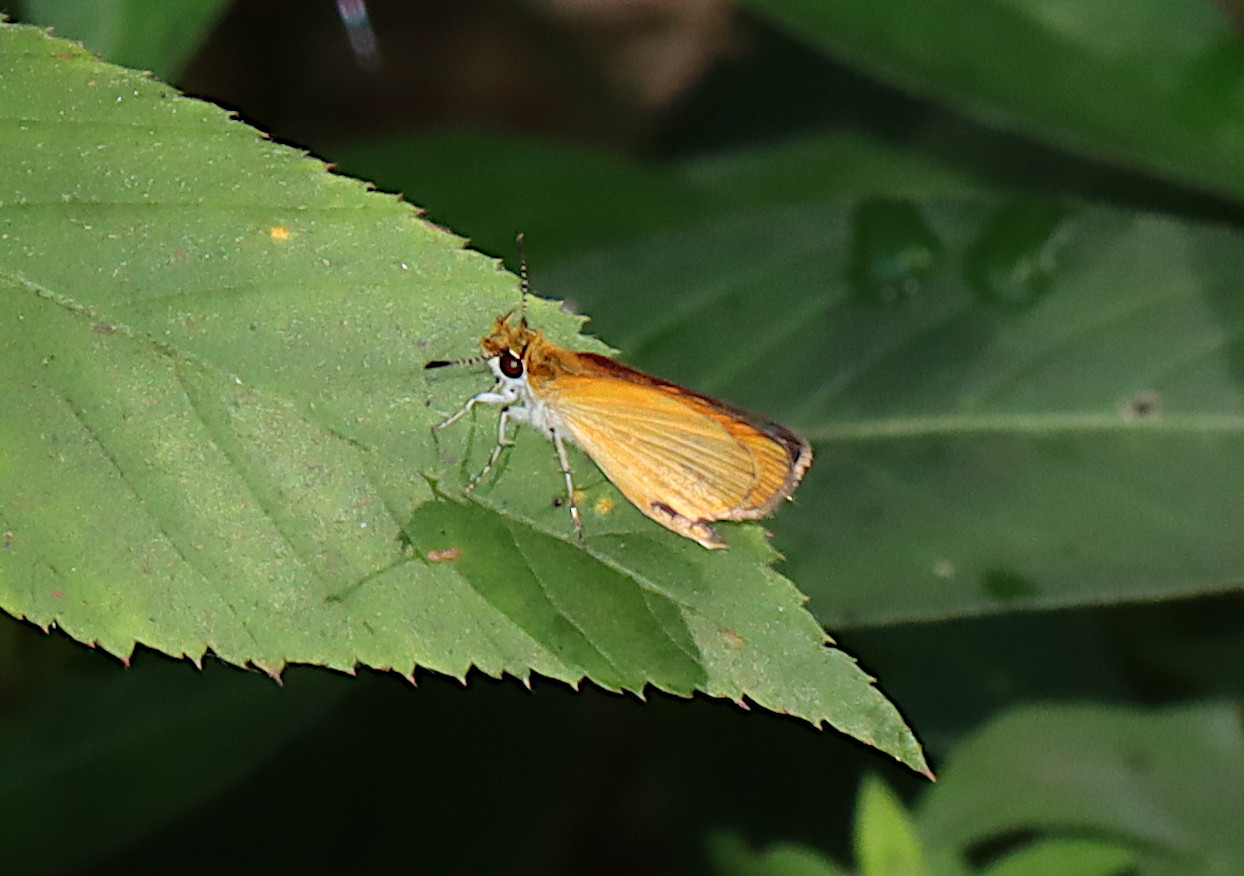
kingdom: Animalia
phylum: Arthropoda
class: Insecta
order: Lepidoptera
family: Hesperiidae
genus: Ancyloxypha
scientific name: Ancyloxypha numitor
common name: Least skipper
